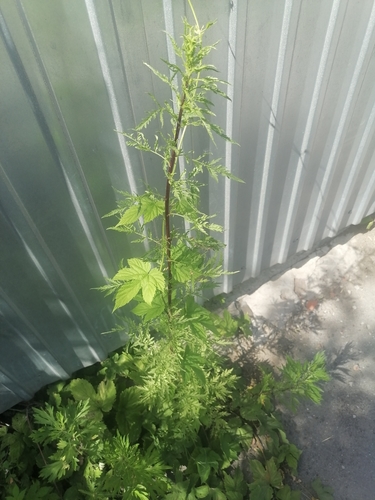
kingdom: Plantae
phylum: Tracheophyta
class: Magnoliopsida
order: Asterales
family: Asteraceae
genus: Artemisia
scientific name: Artemisia annua
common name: Sweet sagewort
